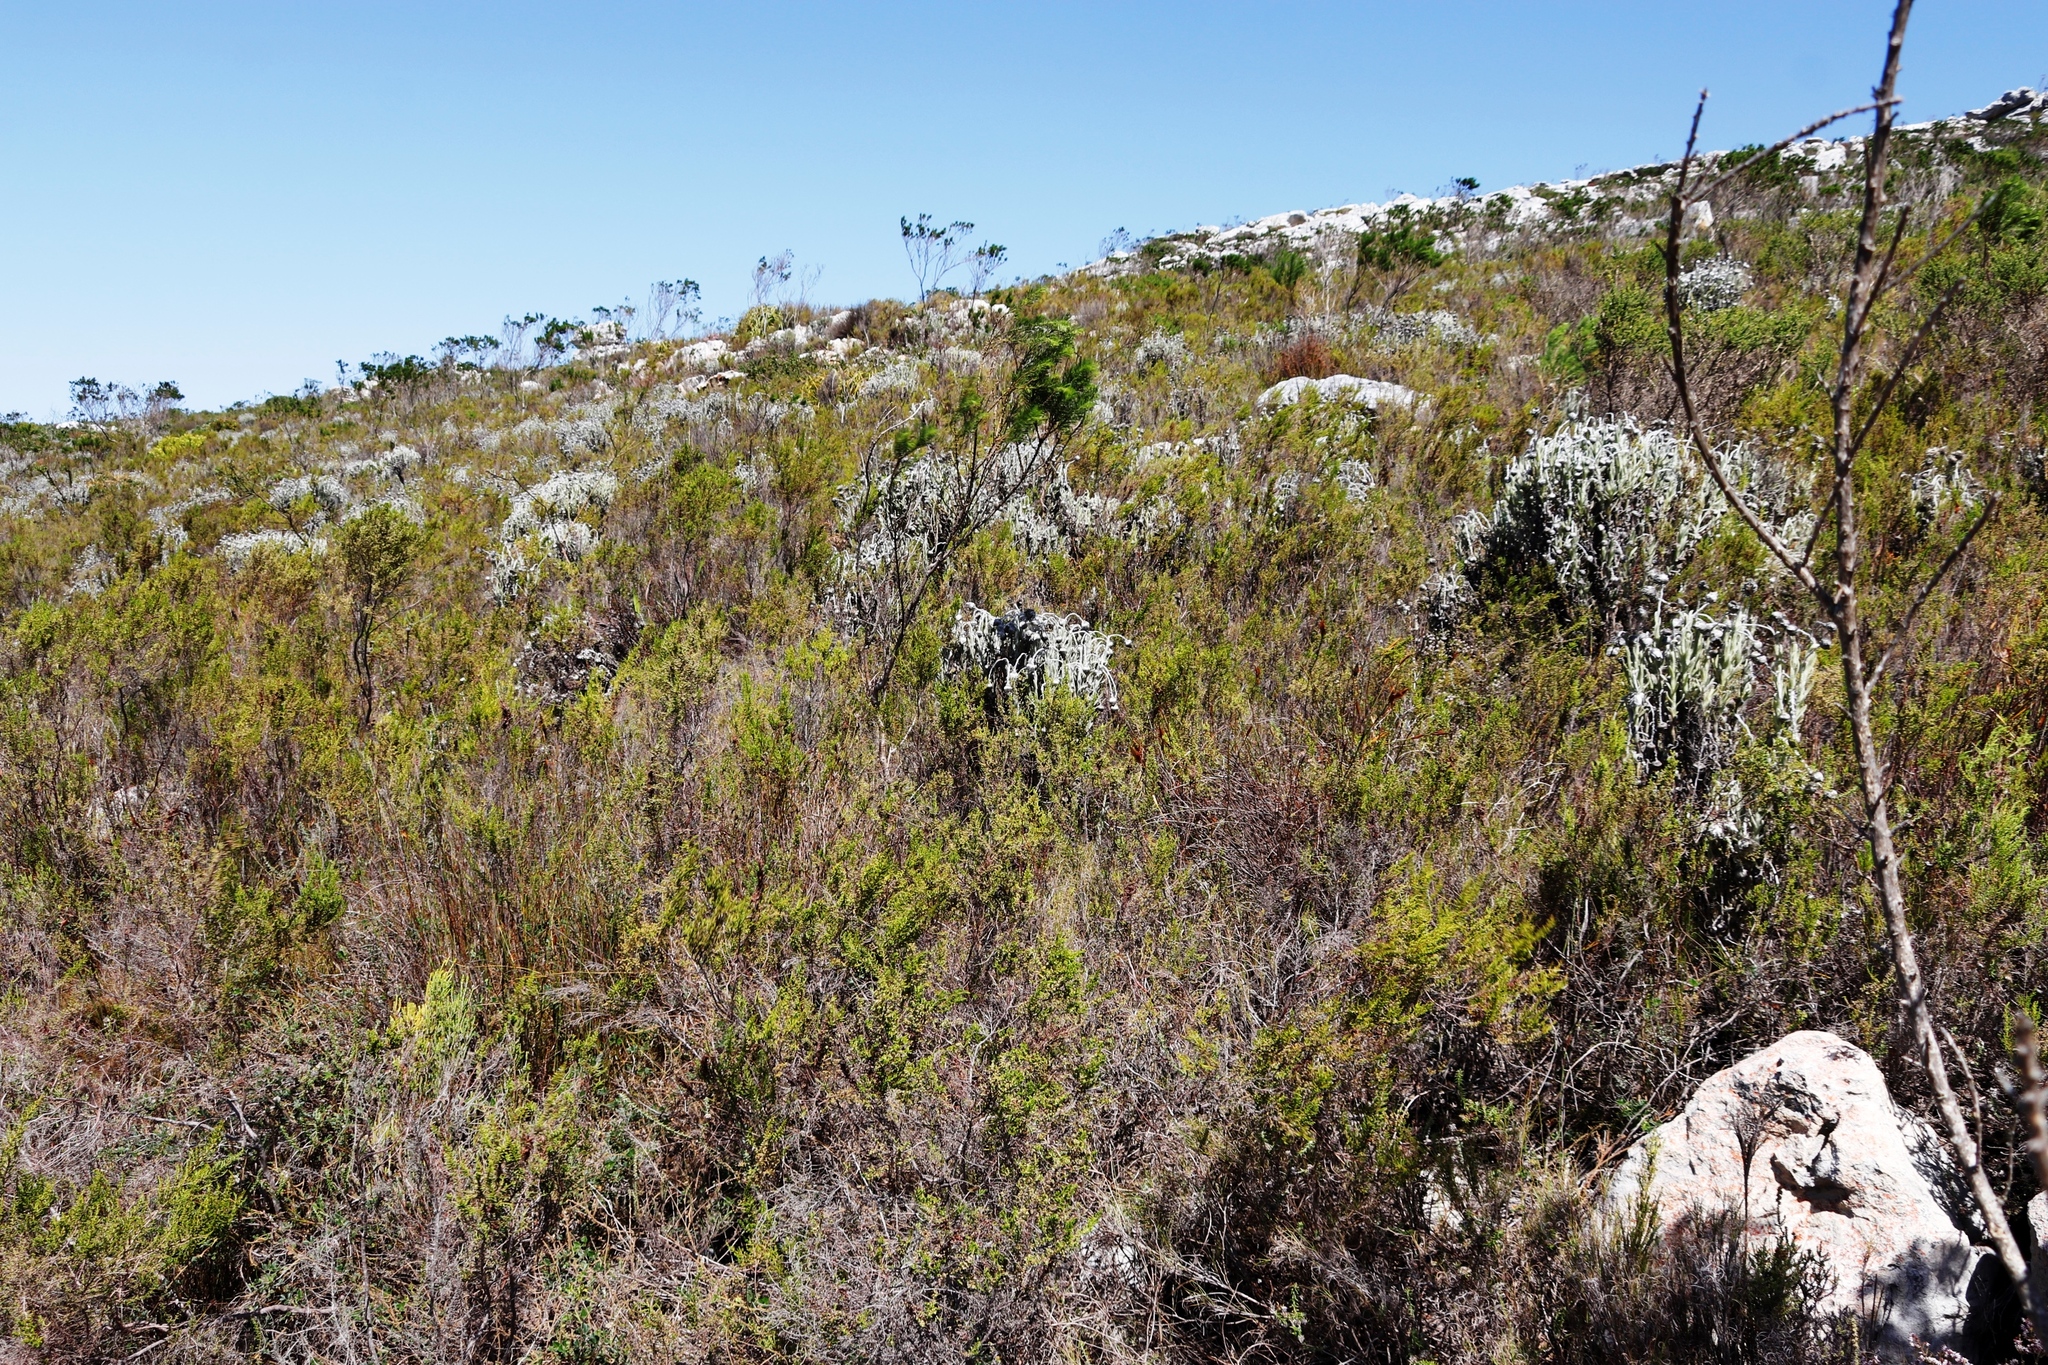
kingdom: Plantae
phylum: Tracheophyta
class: Magnoliopsida
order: Asterales
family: Asteraceae
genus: Syncarpha
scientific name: Syncarpha vestita
